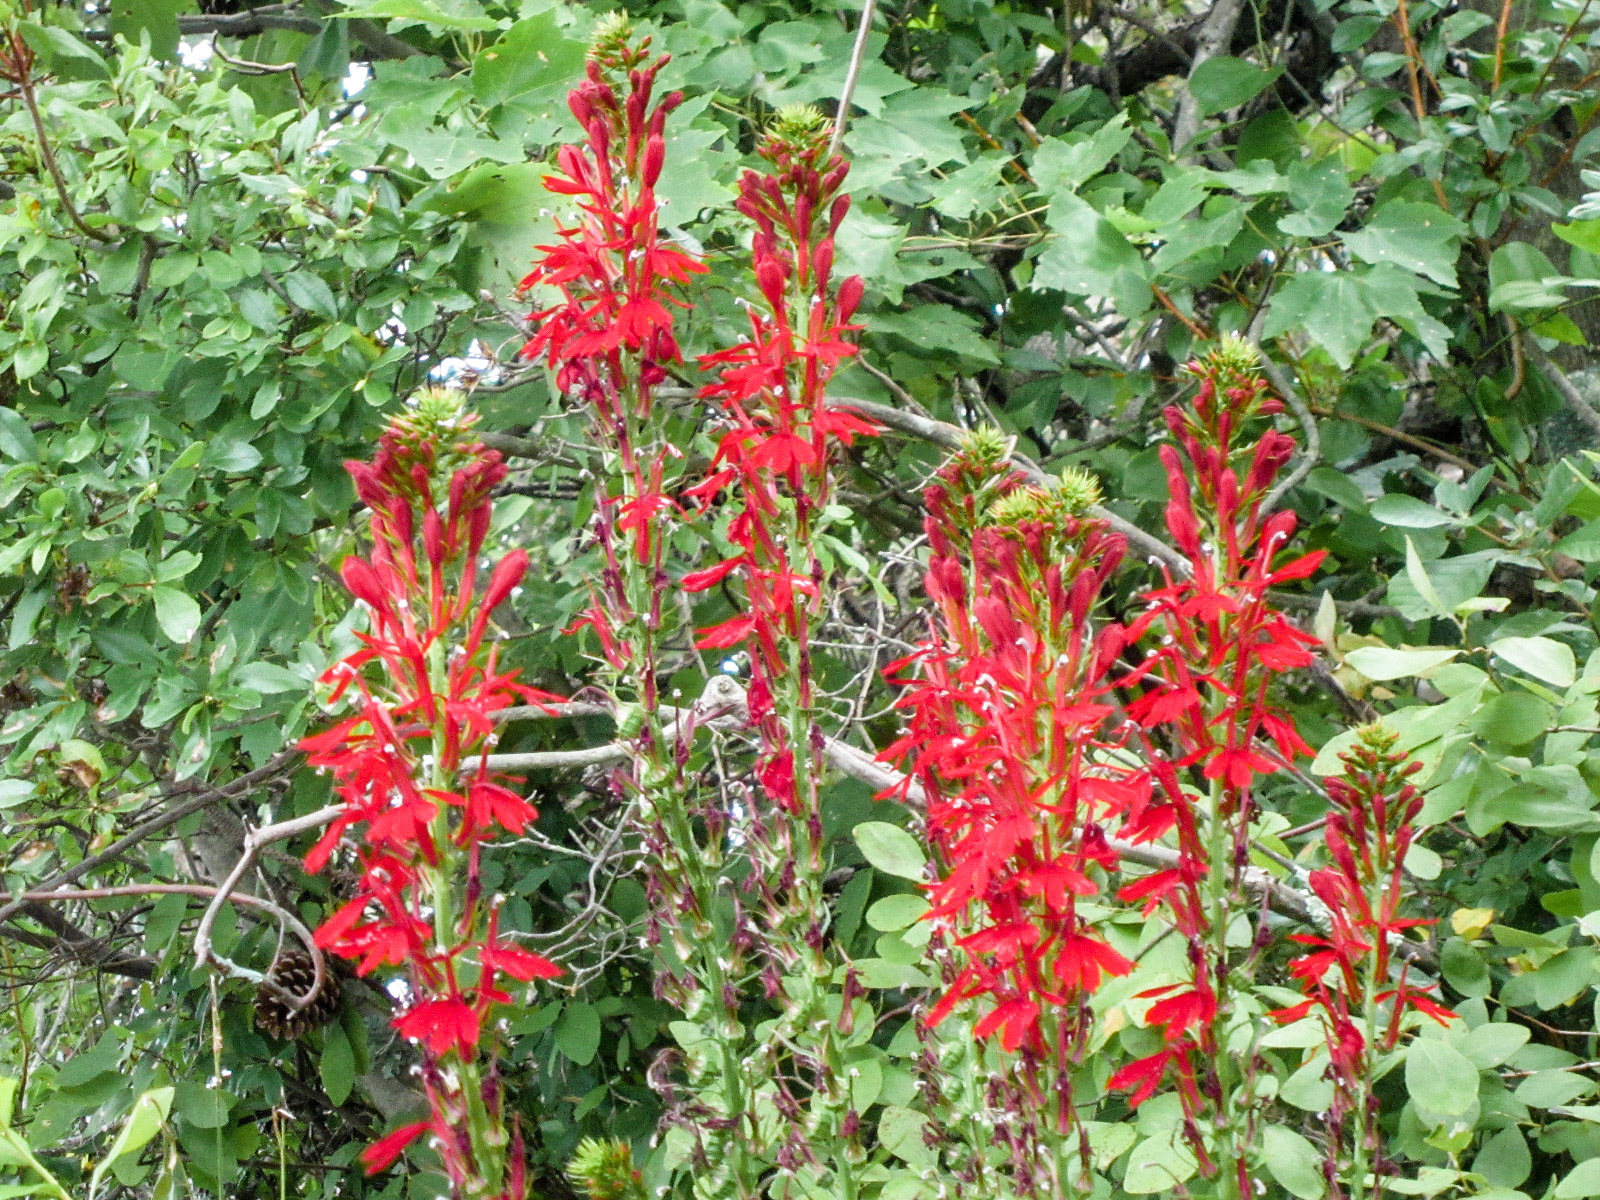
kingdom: Plantae
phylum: Tracheophyta
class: Magnoliopsida
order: Asterales
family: Campanulaceae
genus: Lobelia
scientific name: Lobelia cardinalis
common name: Cardinal flower
